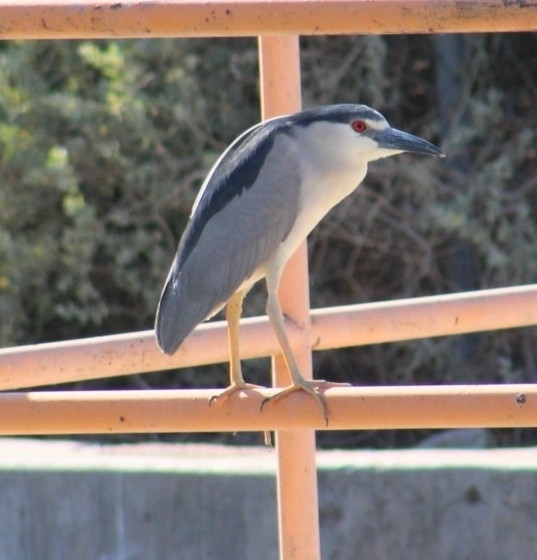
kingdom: Animalia
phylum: Chordata
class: Aves
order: Pelecaniformes
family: Ardeidae
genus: Nycticorax
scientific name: Nycticorax nycticorax
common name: Black-crowned night heron
